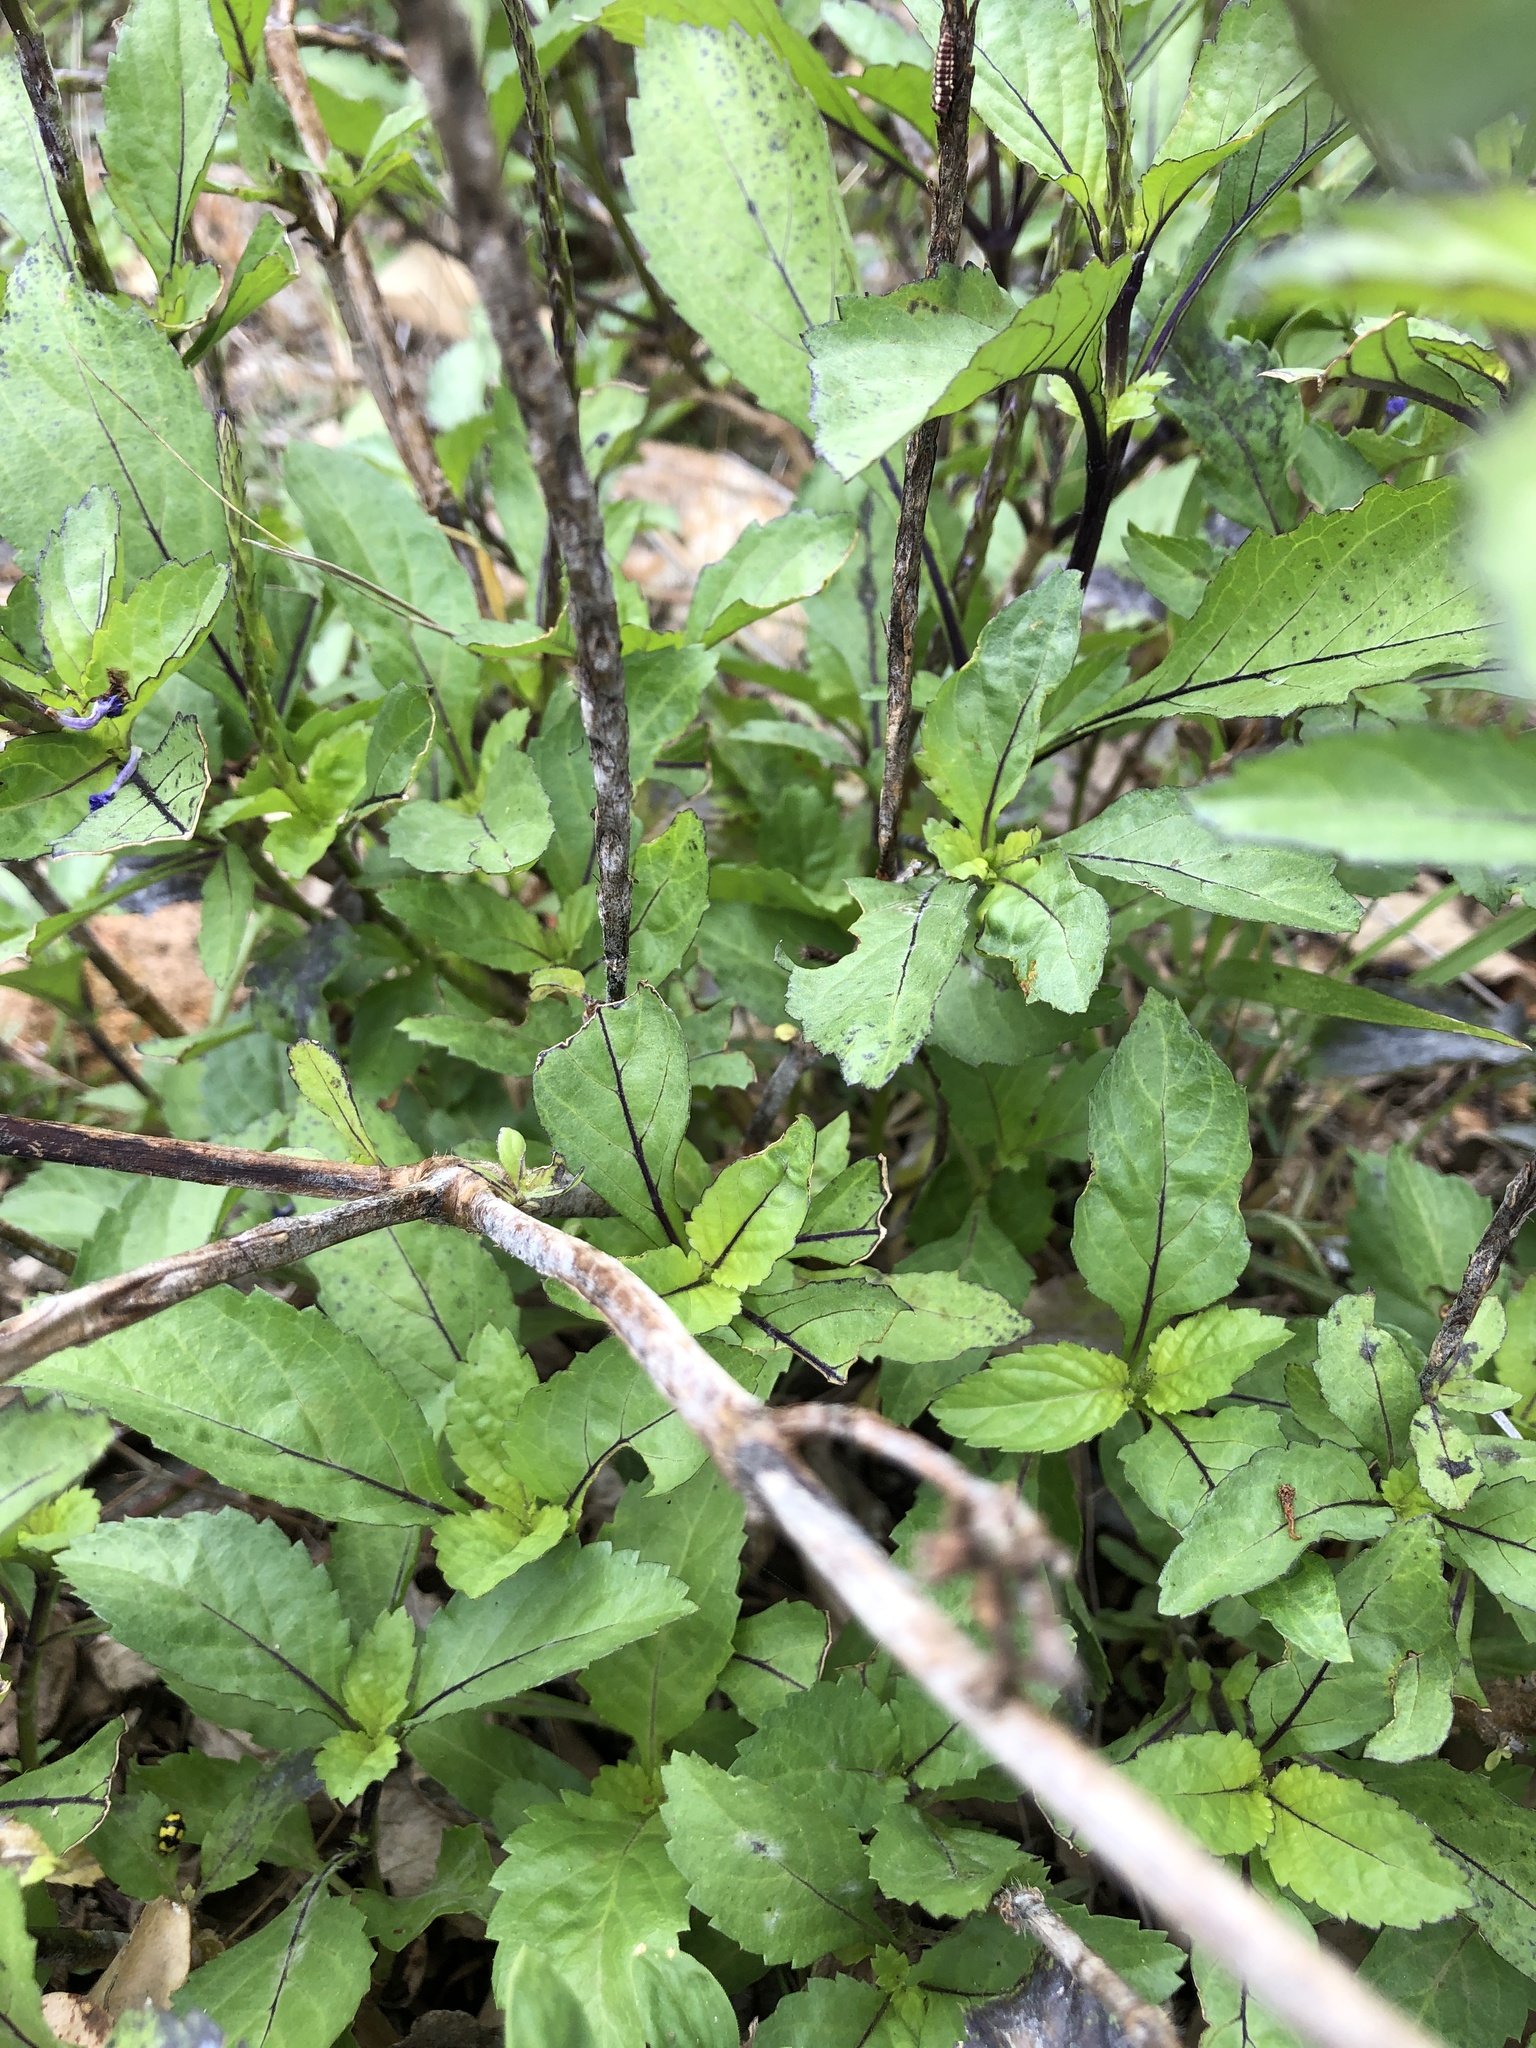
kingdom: Plantae
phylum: Tracheophyta
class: Magnoliopsida
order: Lamiales
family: Verbenaceae
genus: Stachytarpheta
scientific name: Stachytarpheta jamaicensis
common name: Light-blue snakeweed
